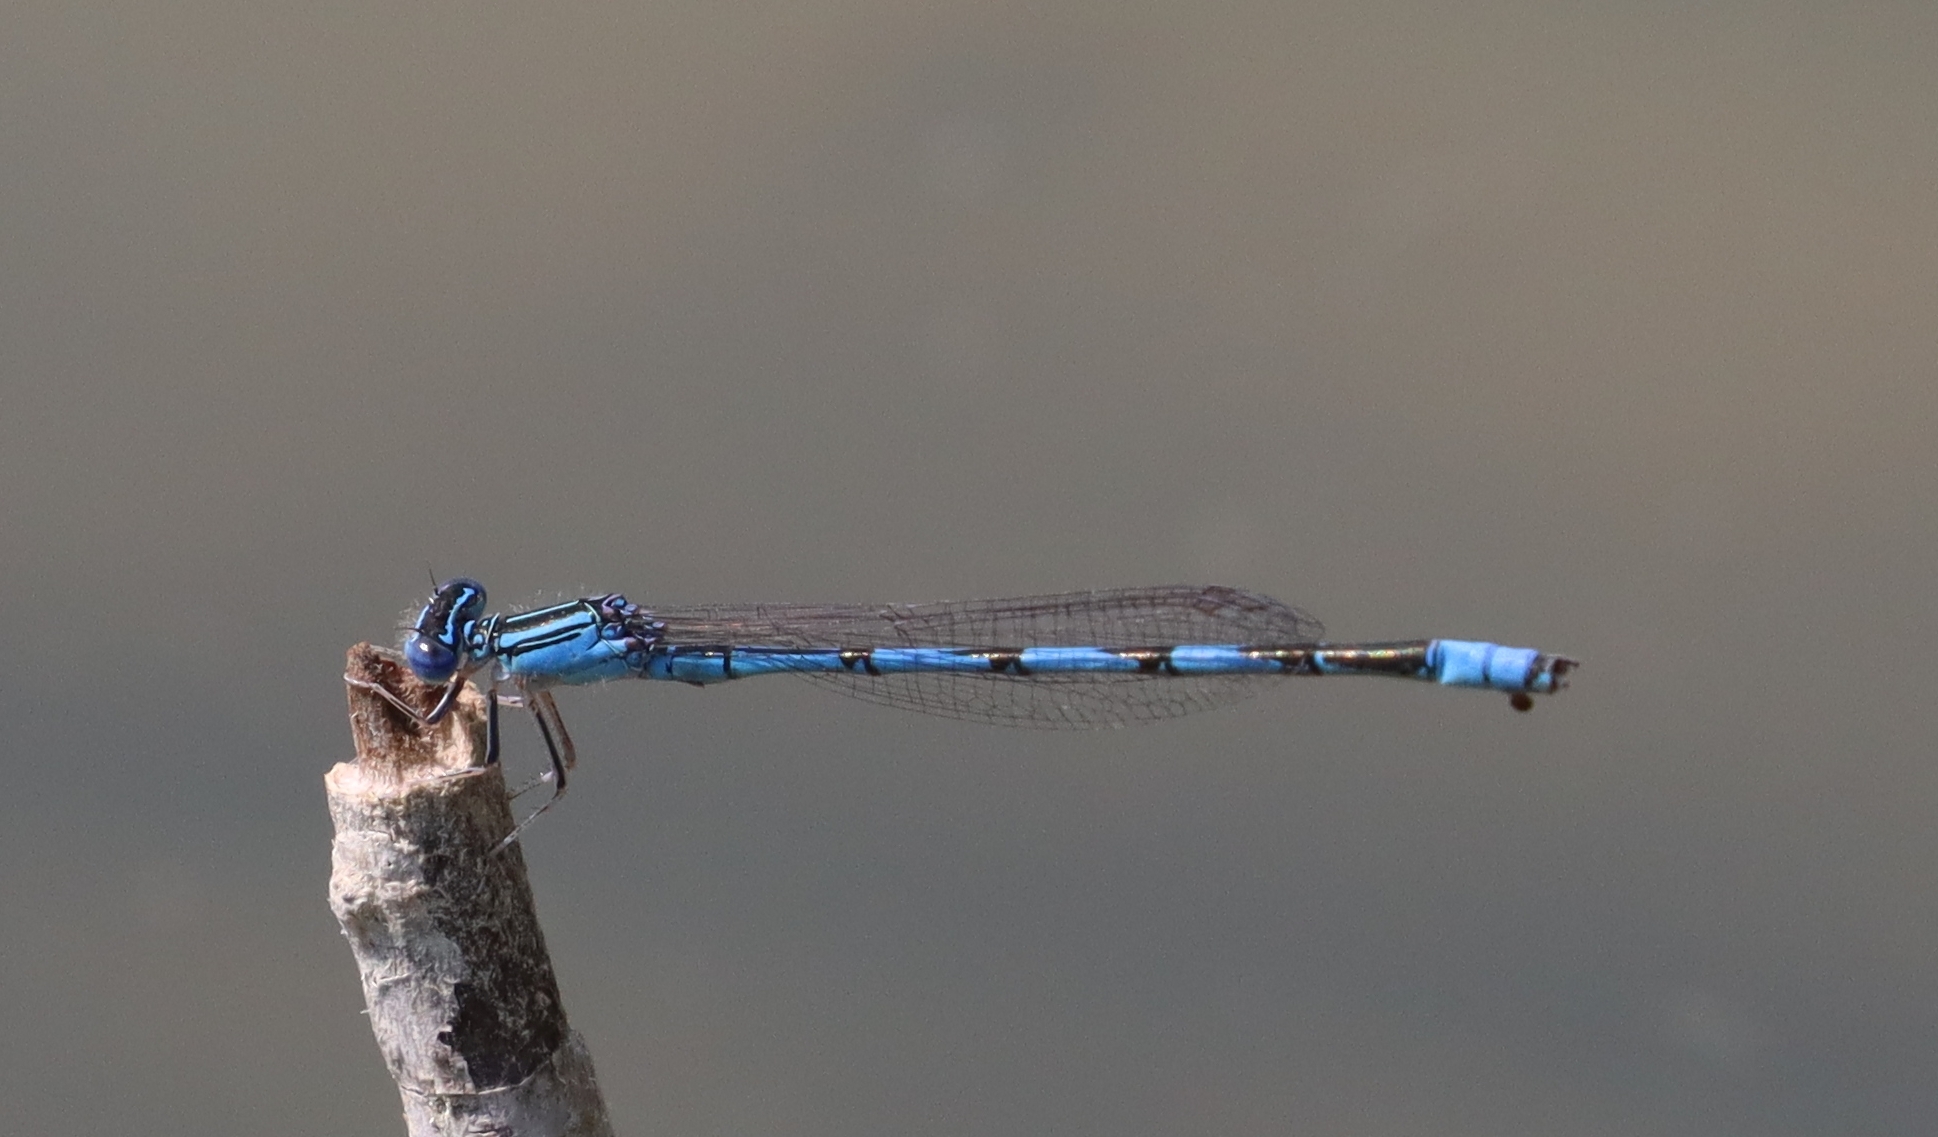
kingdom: Animalia
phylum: Arthropoda
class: Insecta
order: Odonata
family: Coenagrionidae
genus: Enallagma
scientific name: Enallagma basidens
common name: Double-striped bluet
